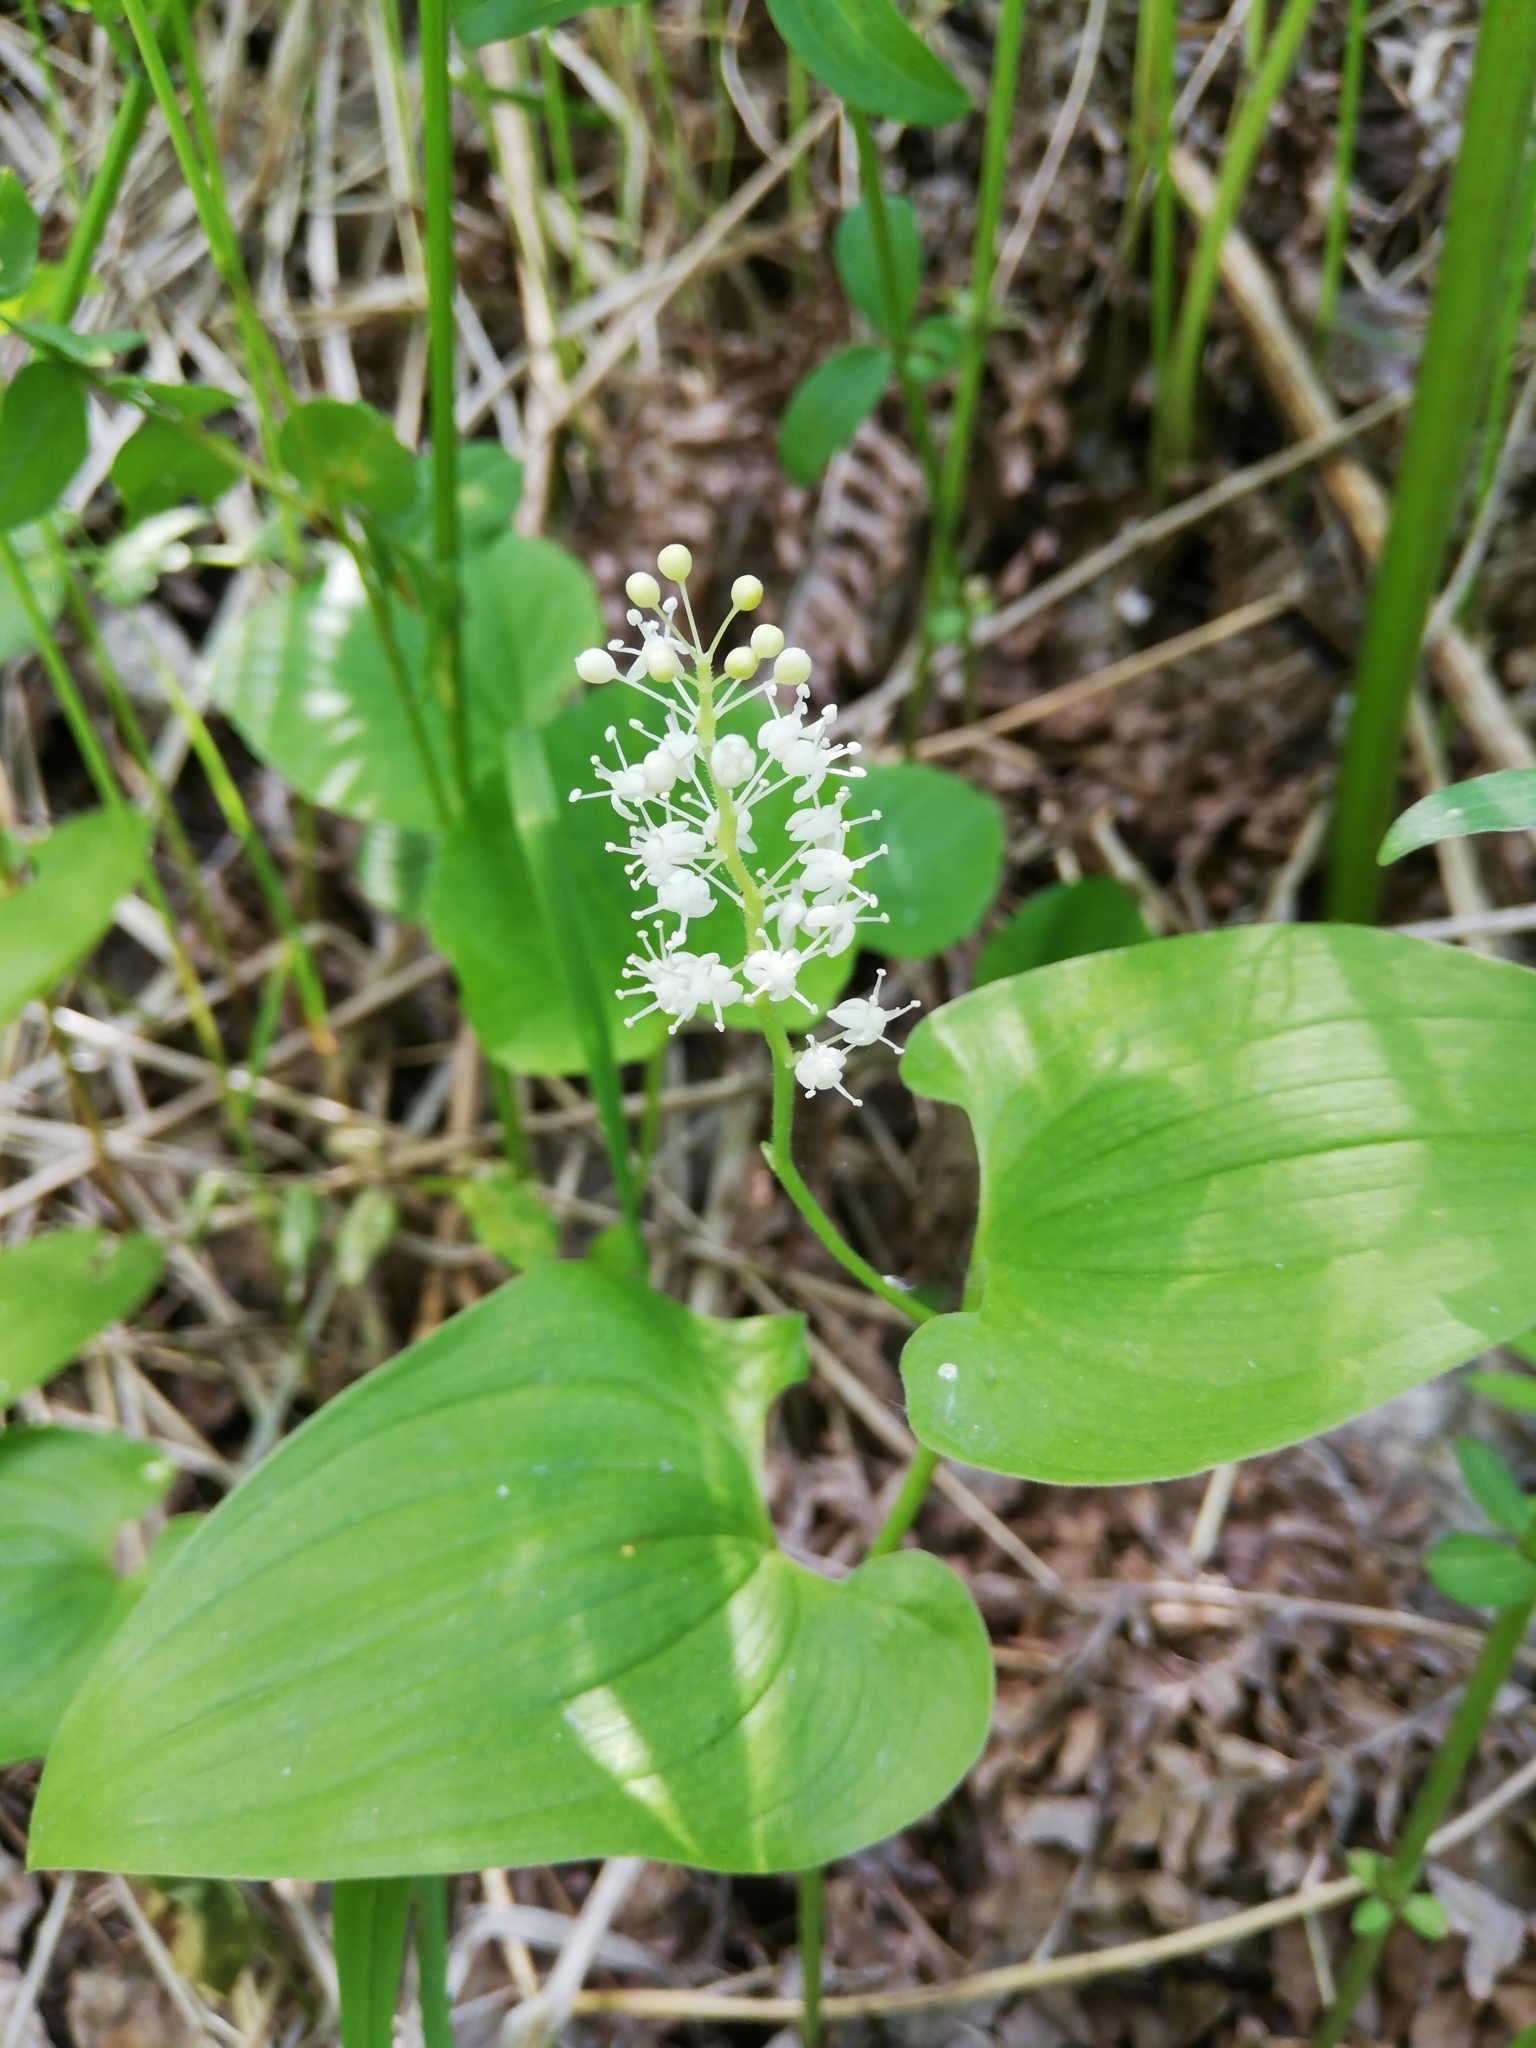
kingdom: Plantae
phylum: Tracheophyta
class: Liliopsida
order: Asparagales
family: Asparagaceae
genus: Maianthemum
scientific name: Maianthemum bifolium
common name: May lily
